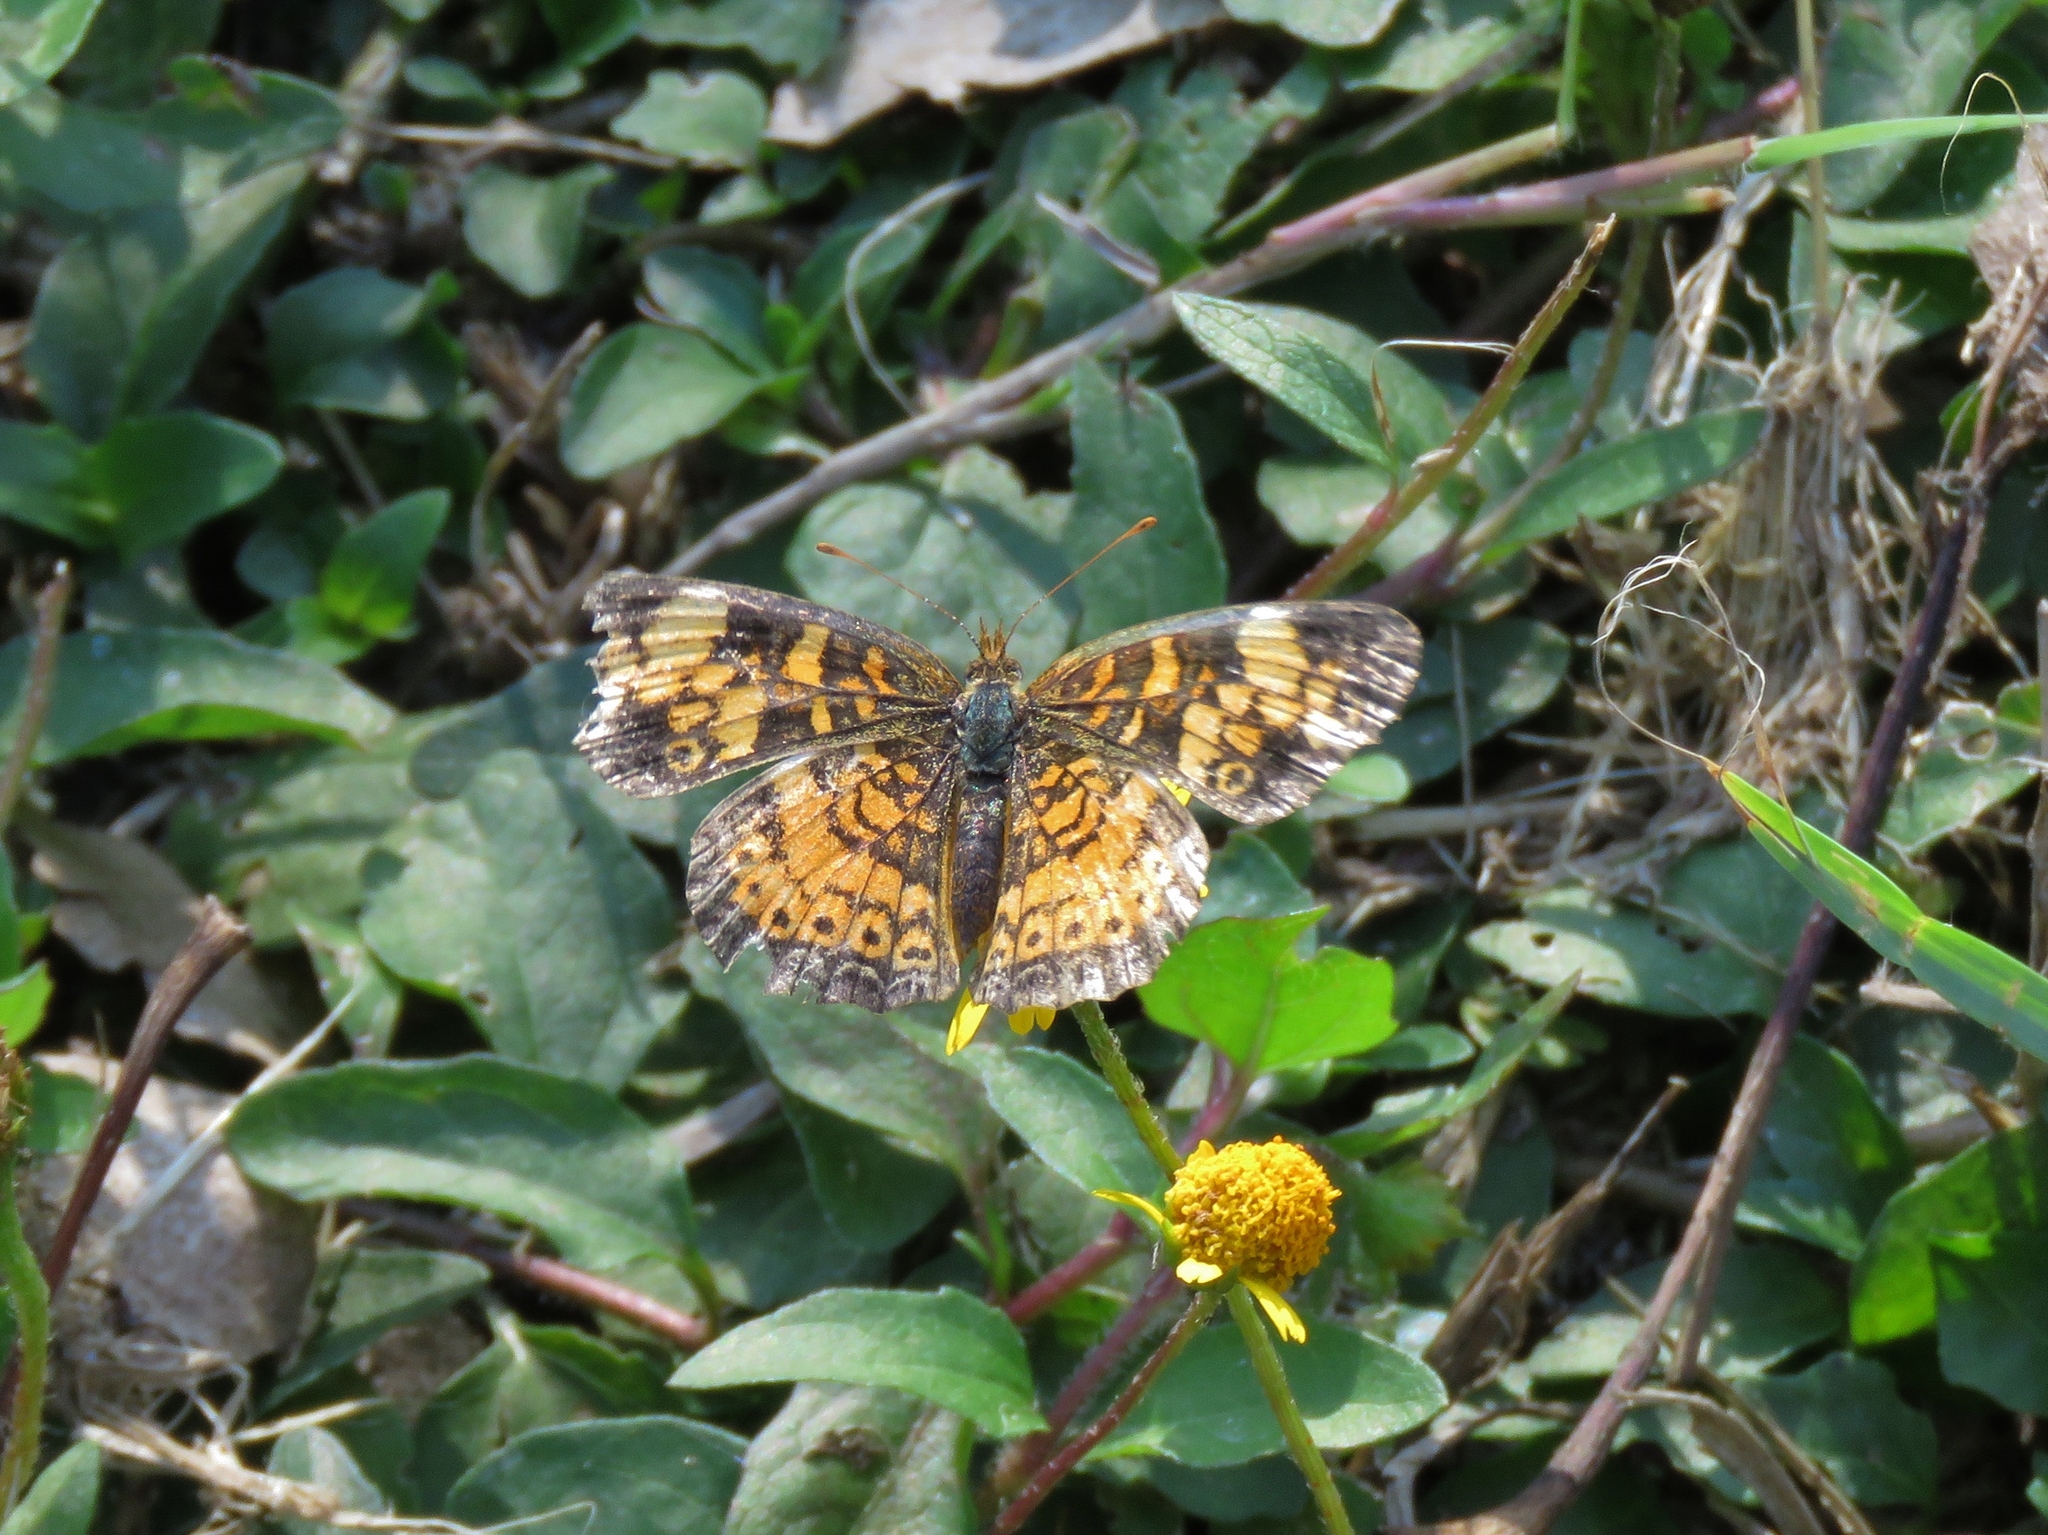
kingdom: Animalia
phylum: Arthropoda
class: Insecta
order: Lepidoptera
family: Nymphalidae
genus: Phyciodes
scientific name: Phyciodes tharos
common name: Pearl crescent
